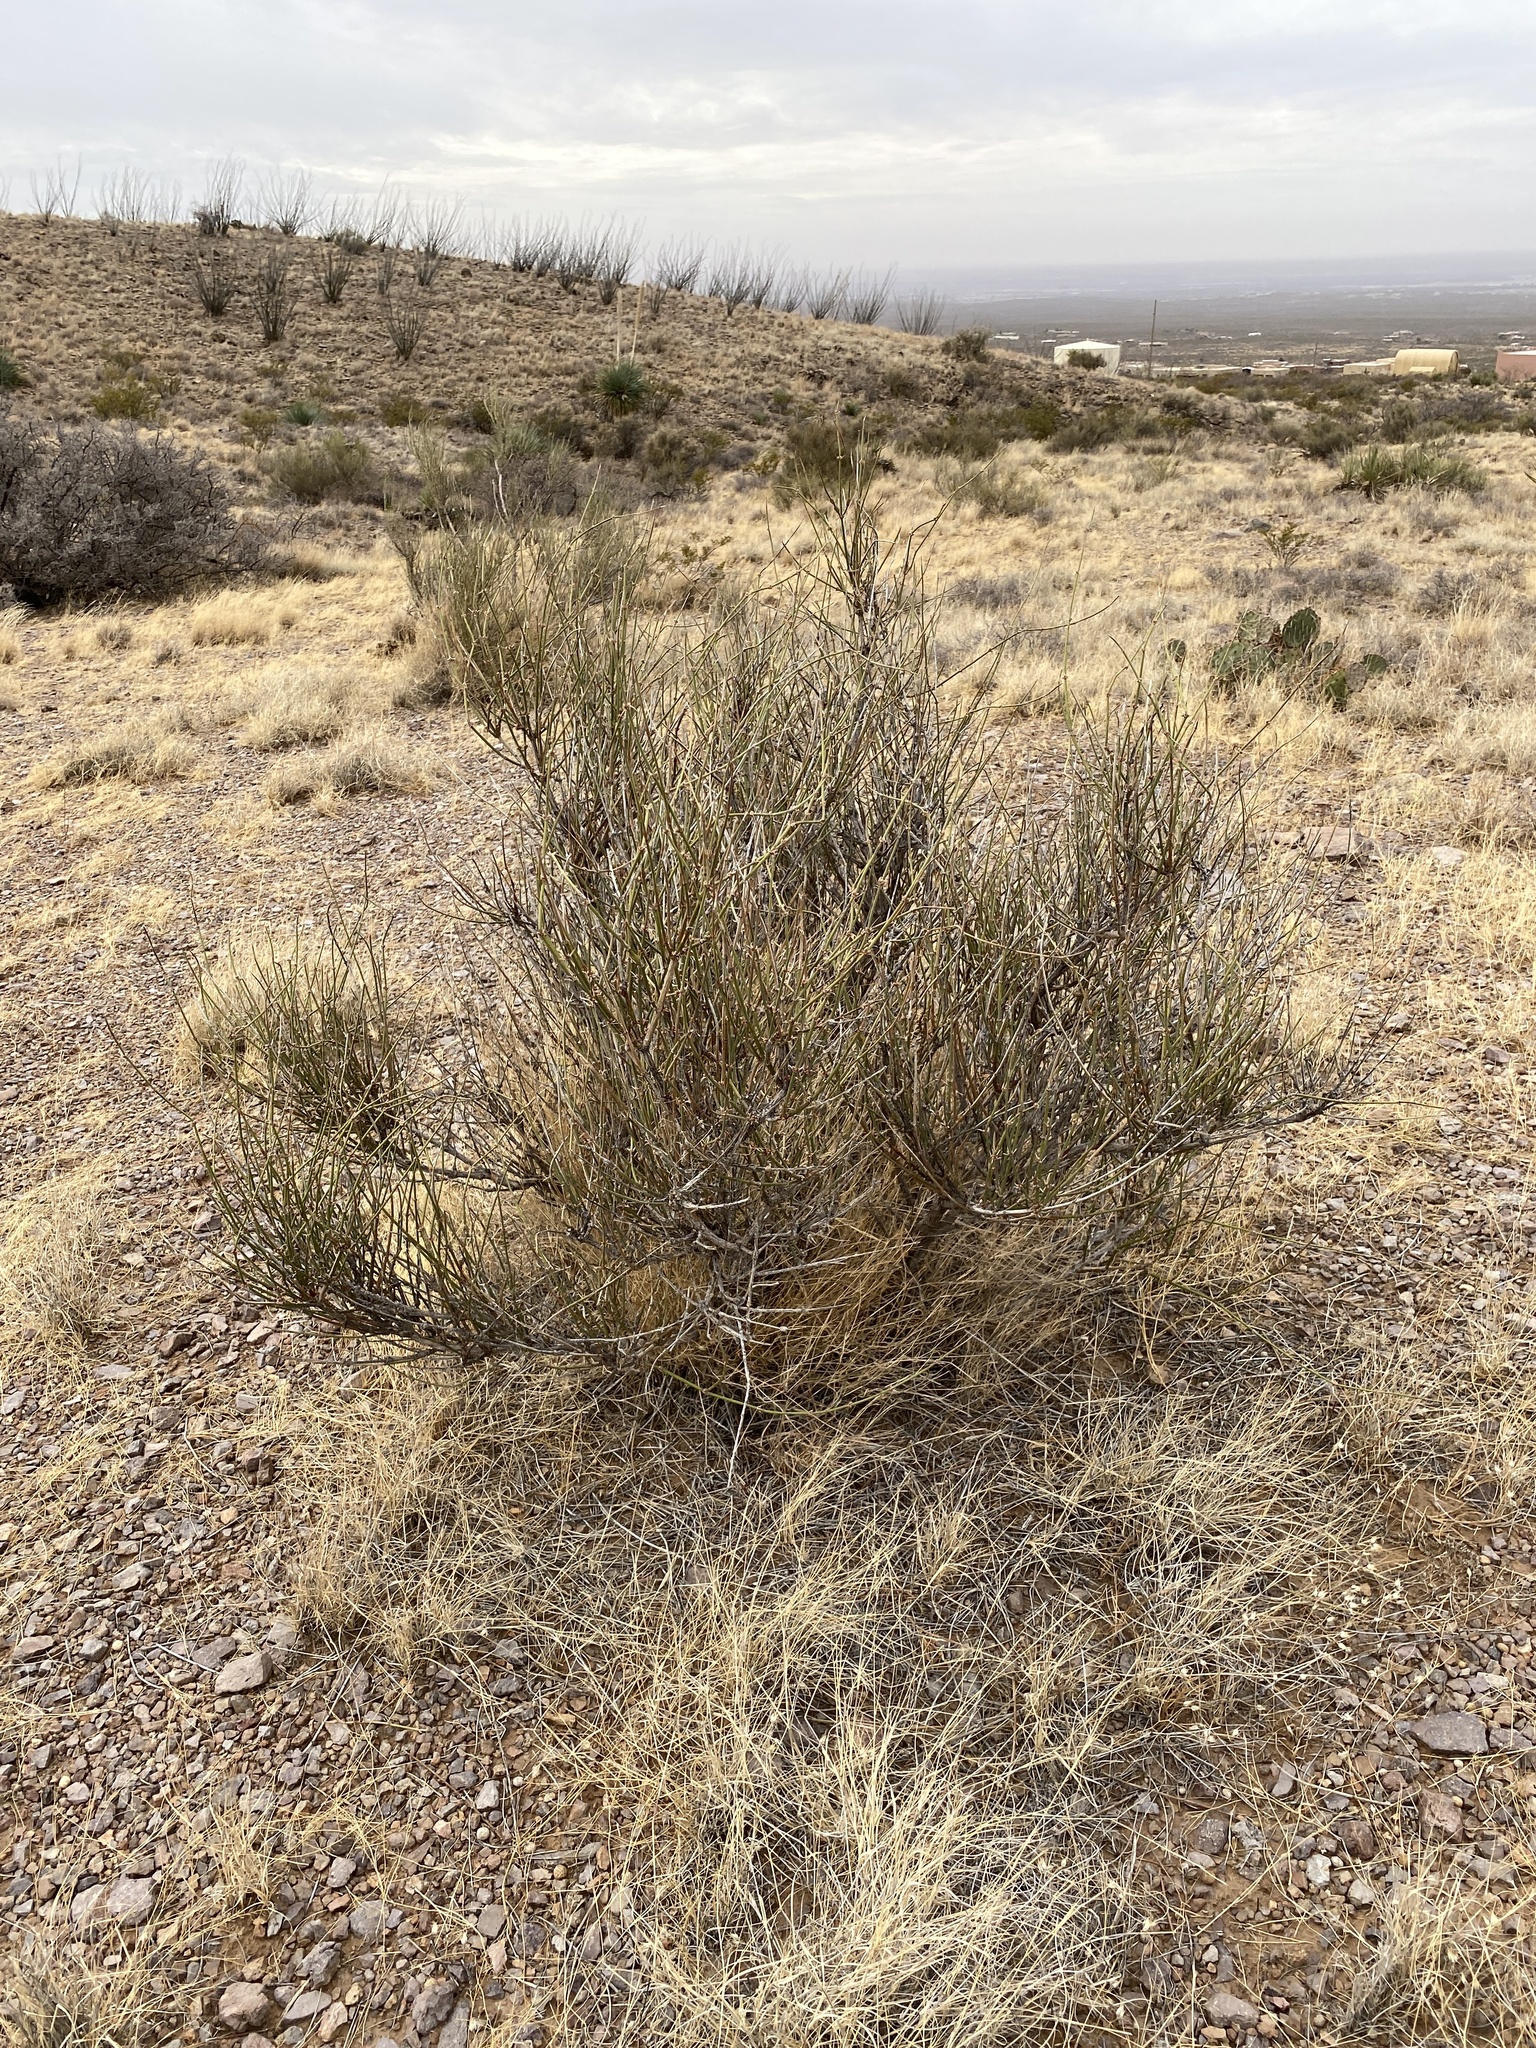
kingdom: Plantae
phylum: Tracheophyta
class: Gnetopsida
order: Ephedrales
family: Ephedraceae
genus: Ephedra
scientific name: Ephedra trifurca
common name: Mexican-tea
